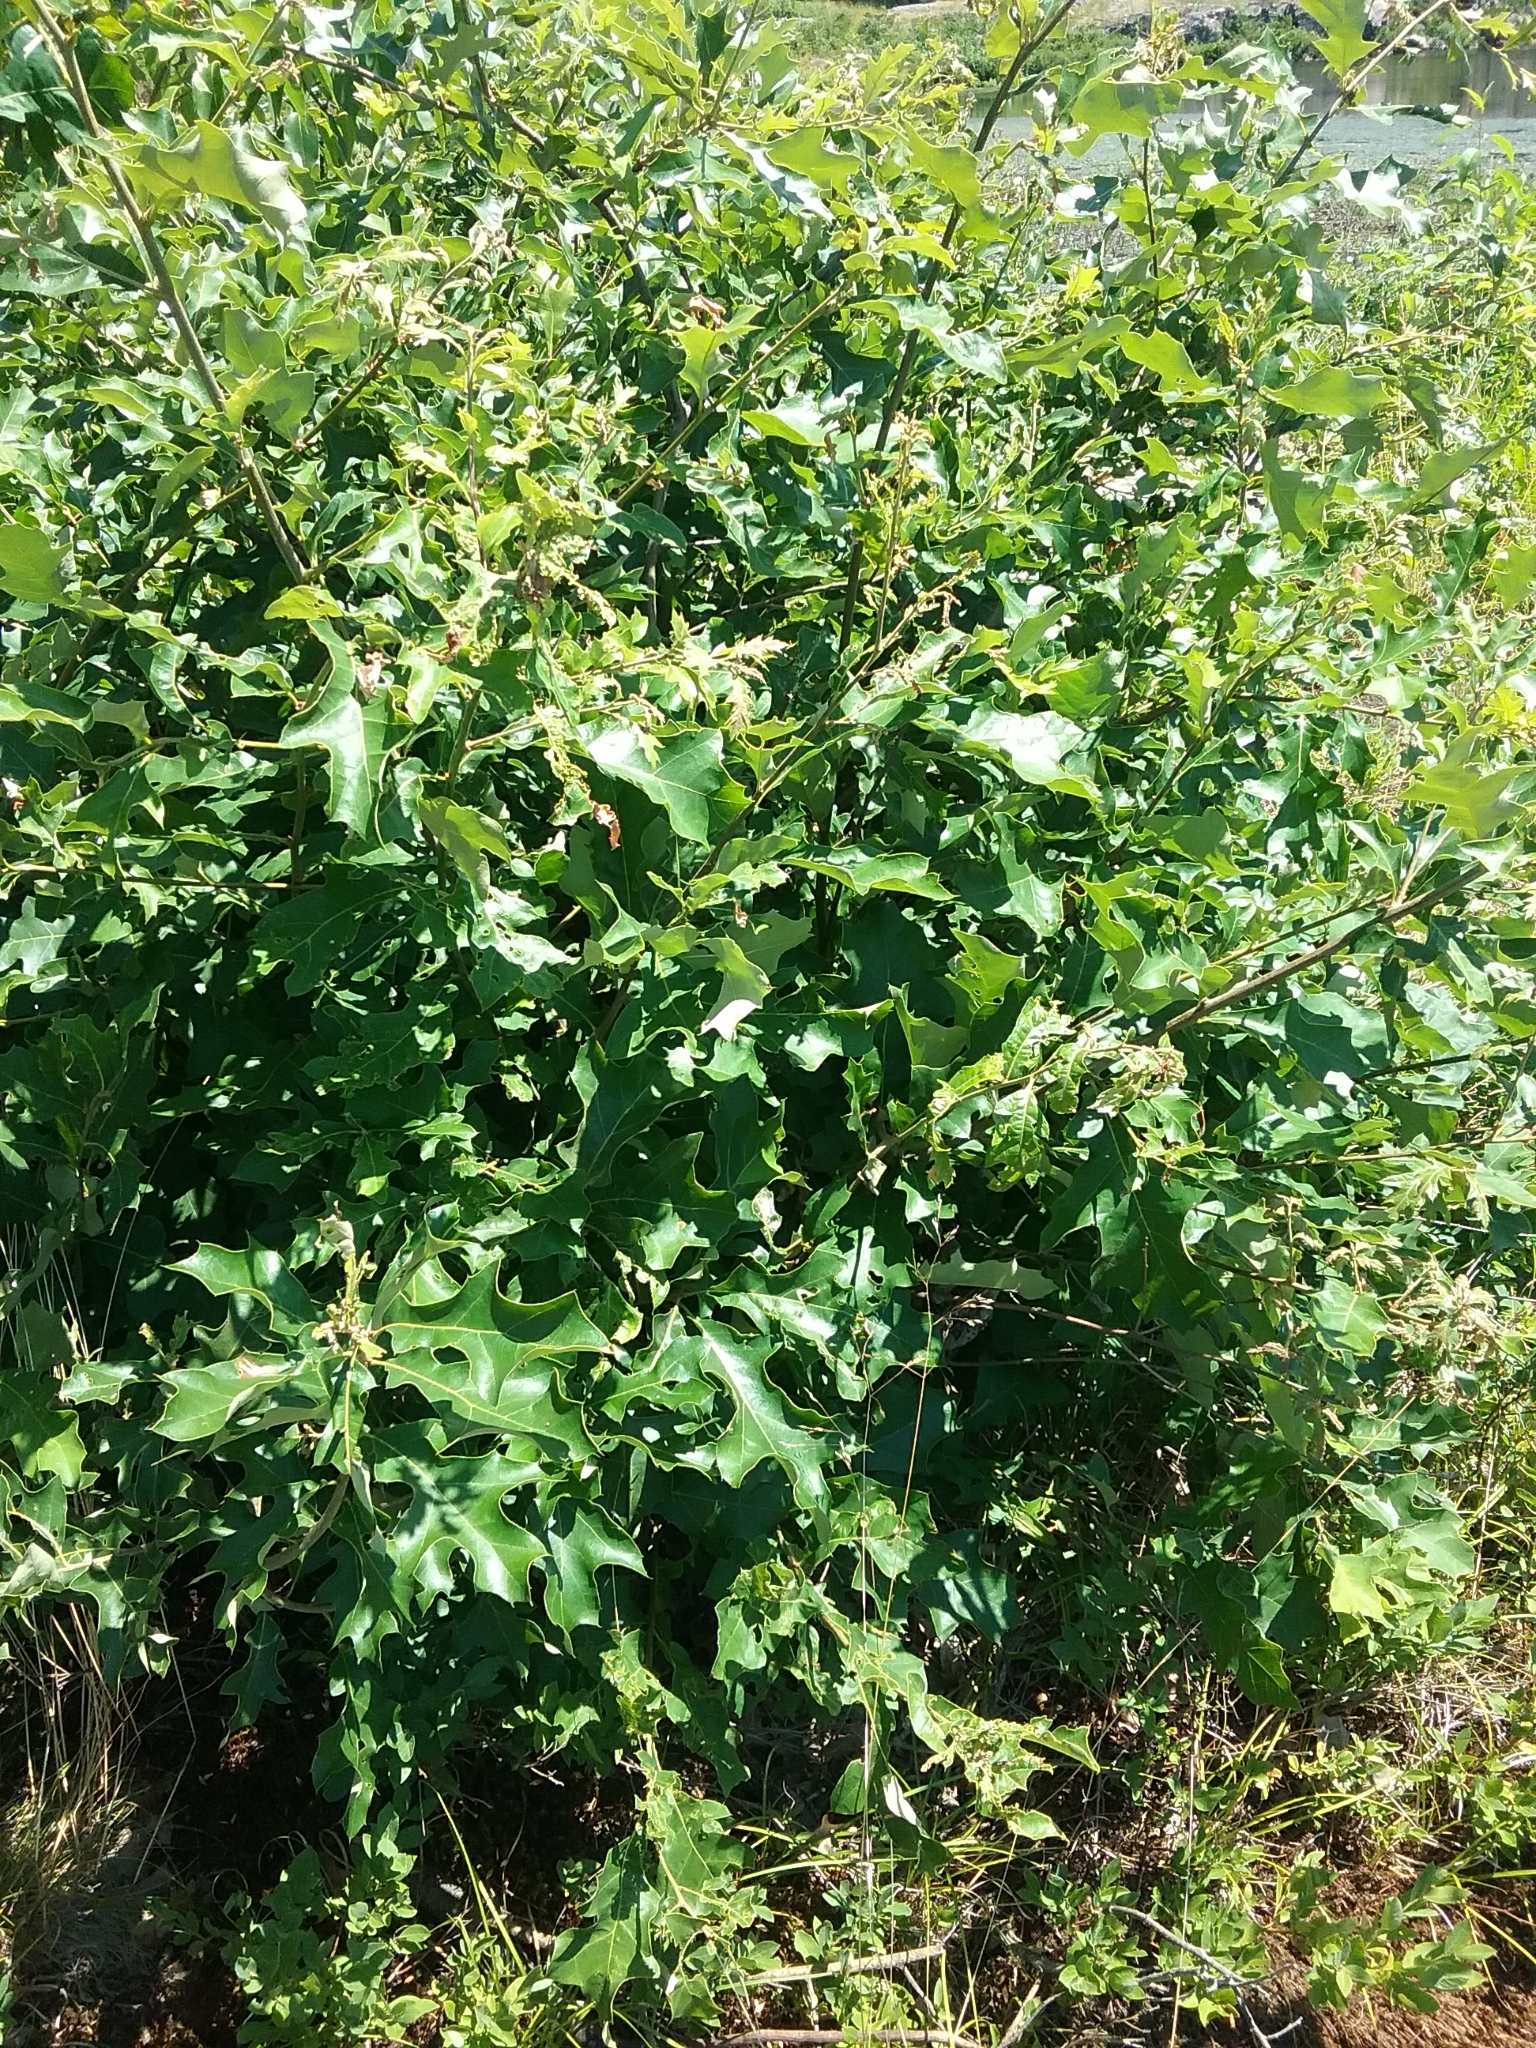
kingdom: Plantae
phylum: Tracheophyta
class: Magnoliopsida
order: Fagales
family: Fagaceae
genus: Quercus
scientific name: Quercus ilicifolia
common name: Bear oak
